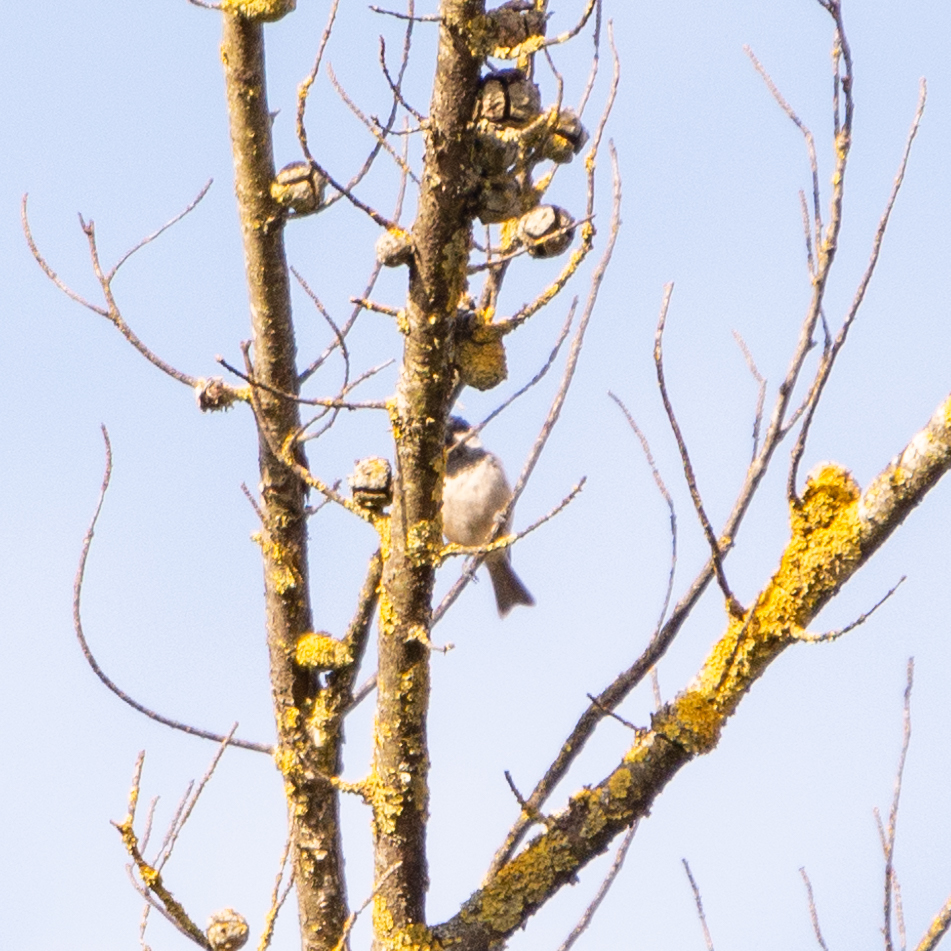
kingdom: Animalia
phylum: Chordata
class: Aves
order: Passeriformes
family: Paridae
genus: Periparus
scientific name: Periparus ater
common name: Coal tit
